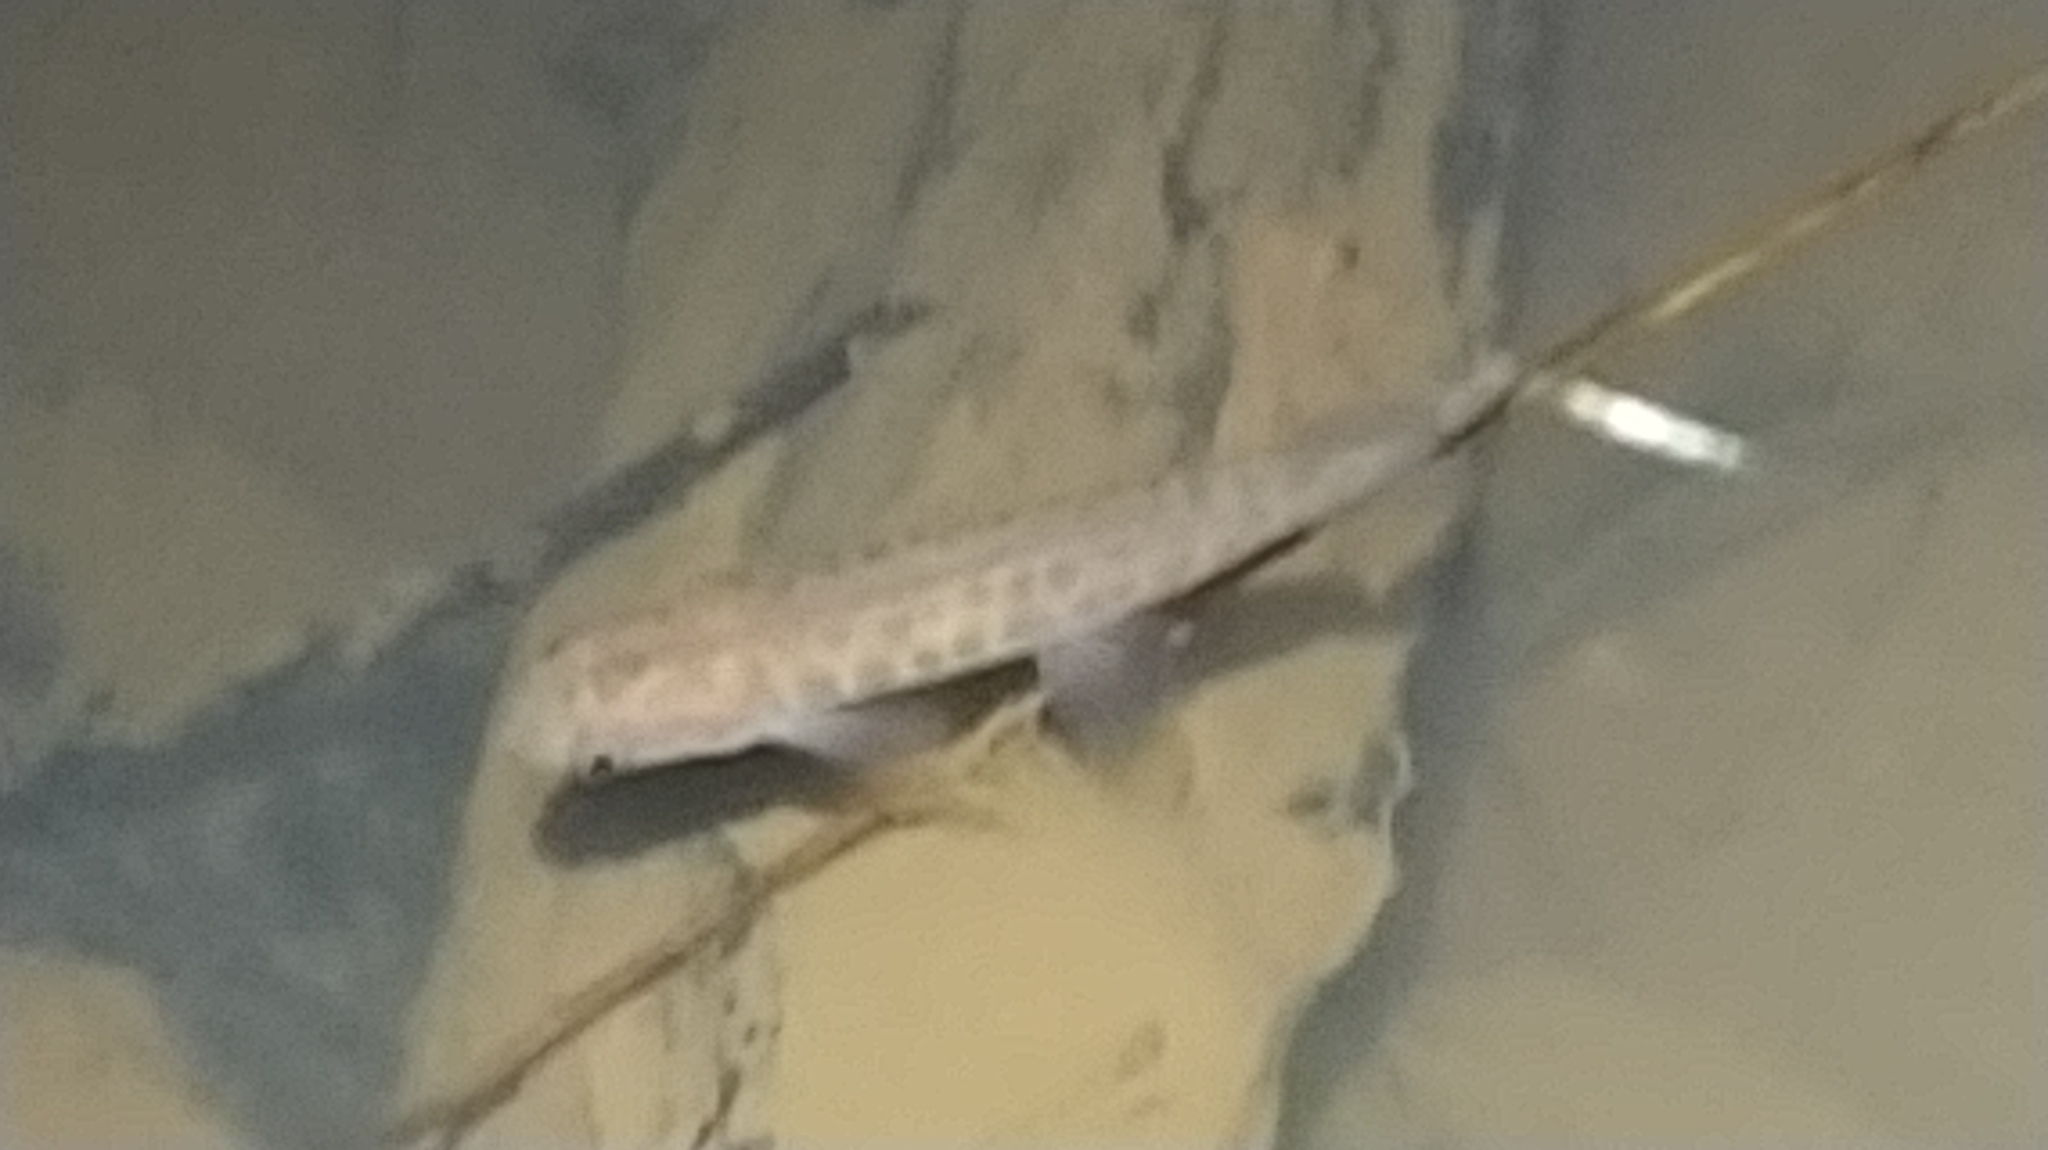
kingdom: Animalia
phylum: Chordata
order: Osmeriformes
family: Galaxiidae
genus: Galaxias
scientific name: Galaxias fasciatus
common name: Banded kokopu
